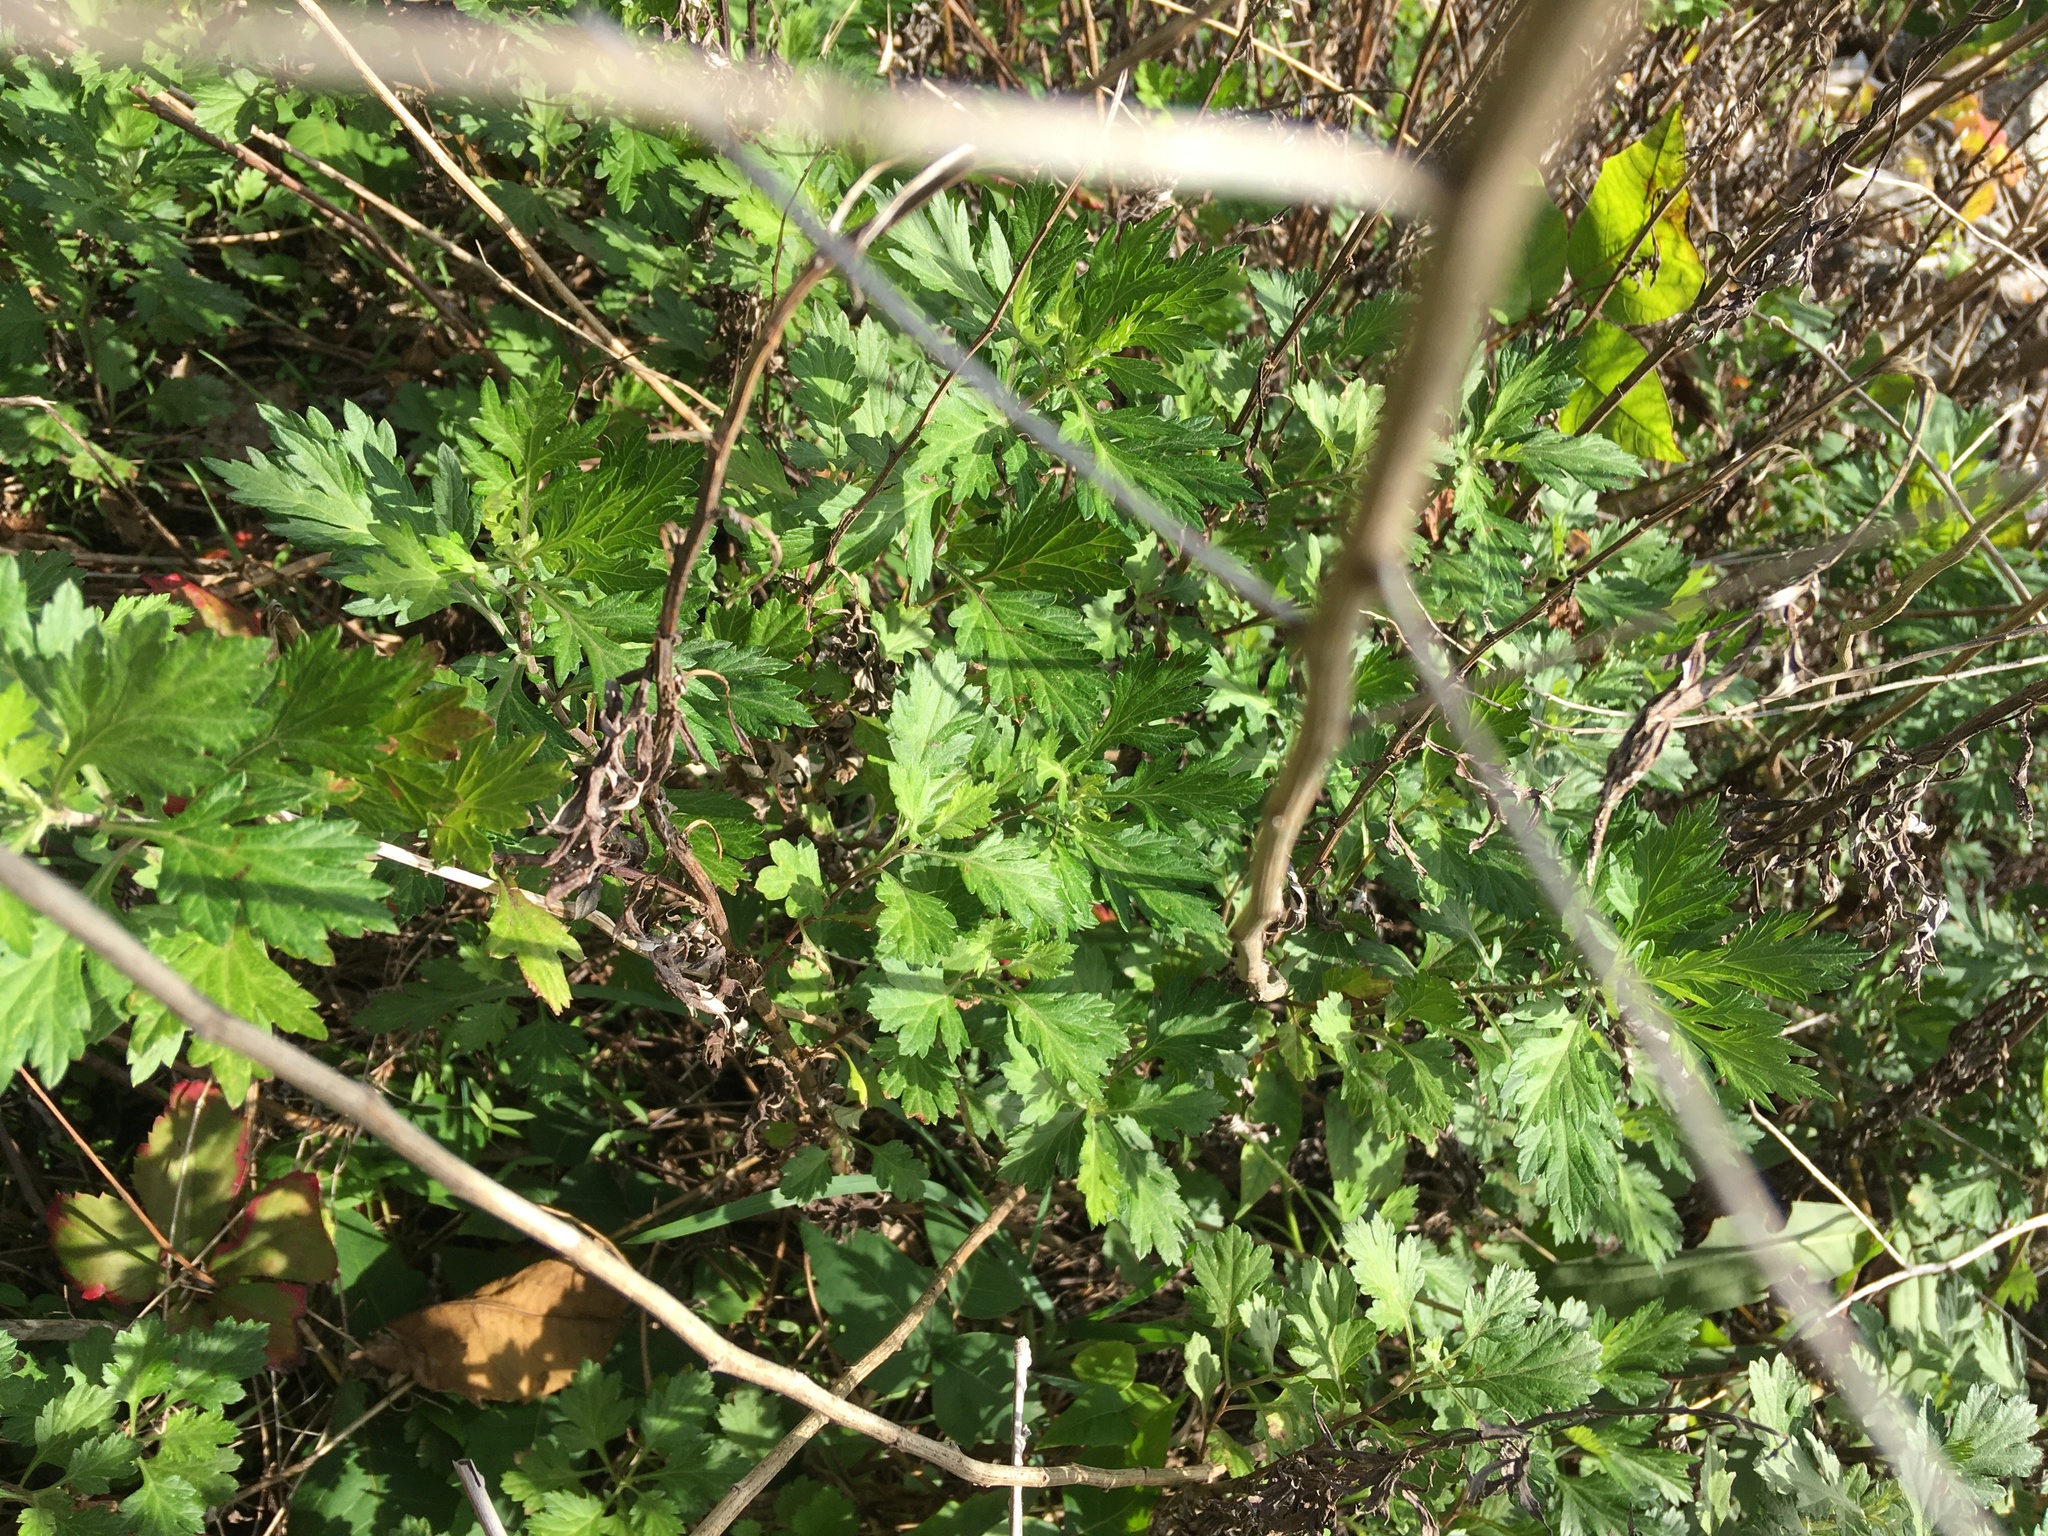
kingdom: Plantae
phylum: Tracheophyta
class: Magnoliopsida
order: Asterales
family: Asteraceae
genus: Artemisia
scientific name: Artemisia vulgaris
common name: Mugwort
